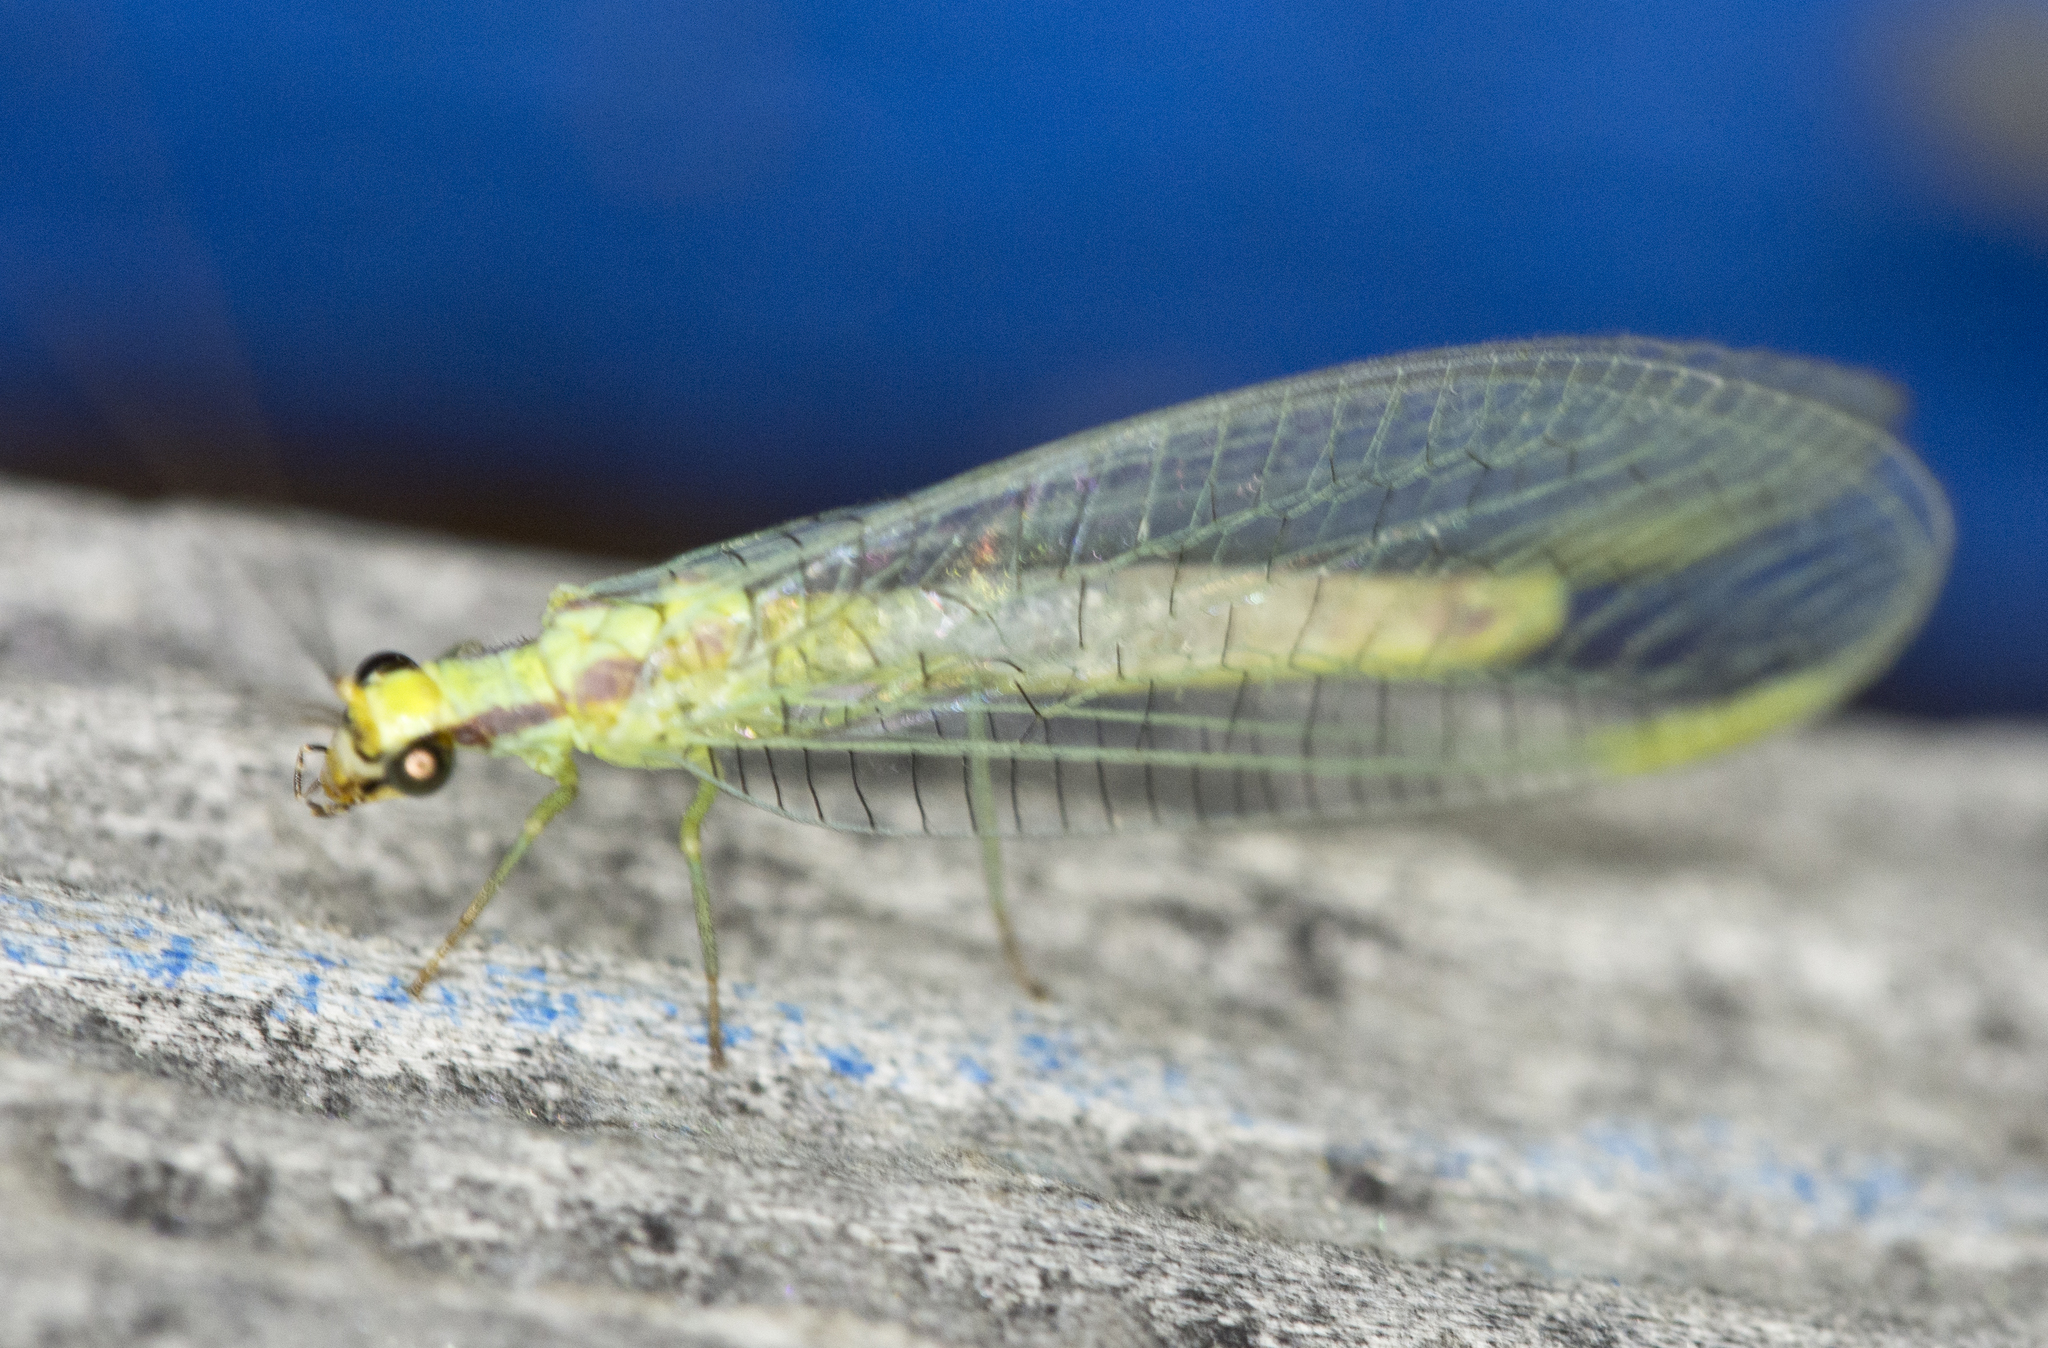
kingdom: Animalia
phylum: Arthropoda
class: Insecta
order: Neuroptera
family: Chrysopidae
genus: Chrysopa
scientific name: Chrysopa coloradensis
